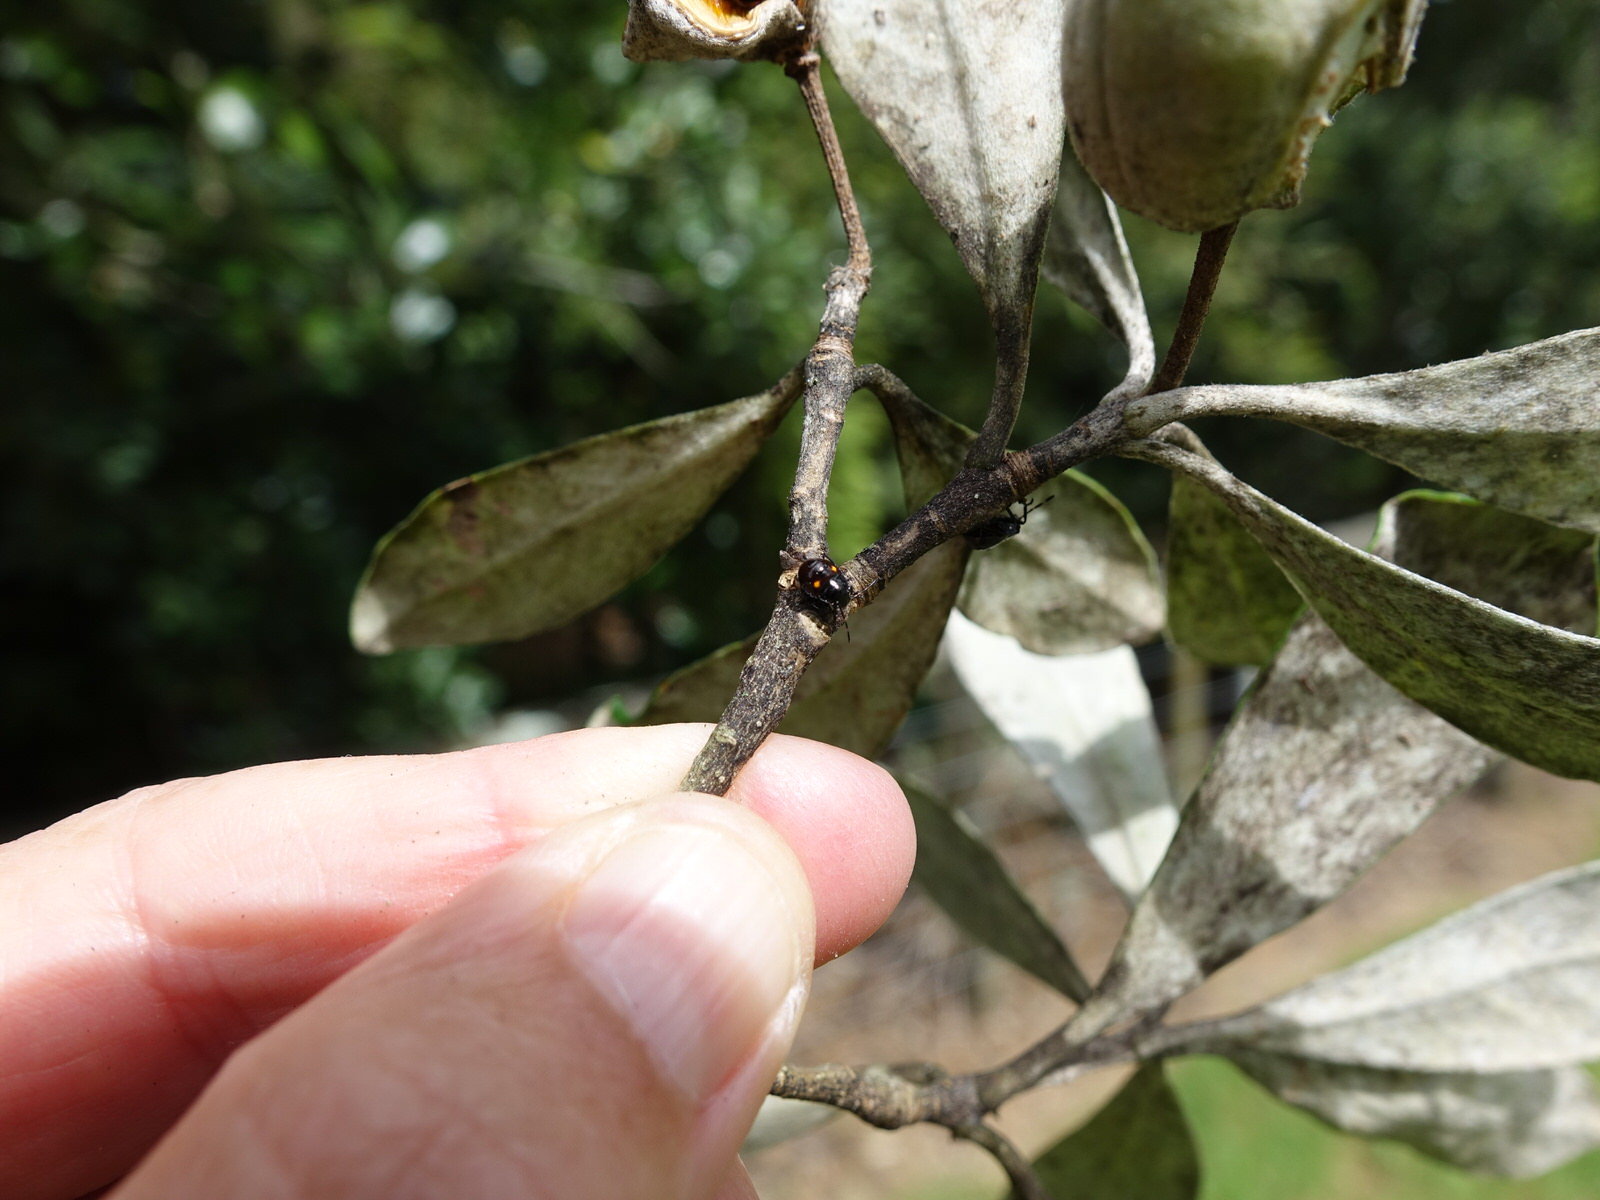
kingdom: Animalia
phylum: Arthropoda
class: Insecta
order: Hemiptera
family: Pentatomidae
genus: Monteithiella
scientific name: Monteithiella
